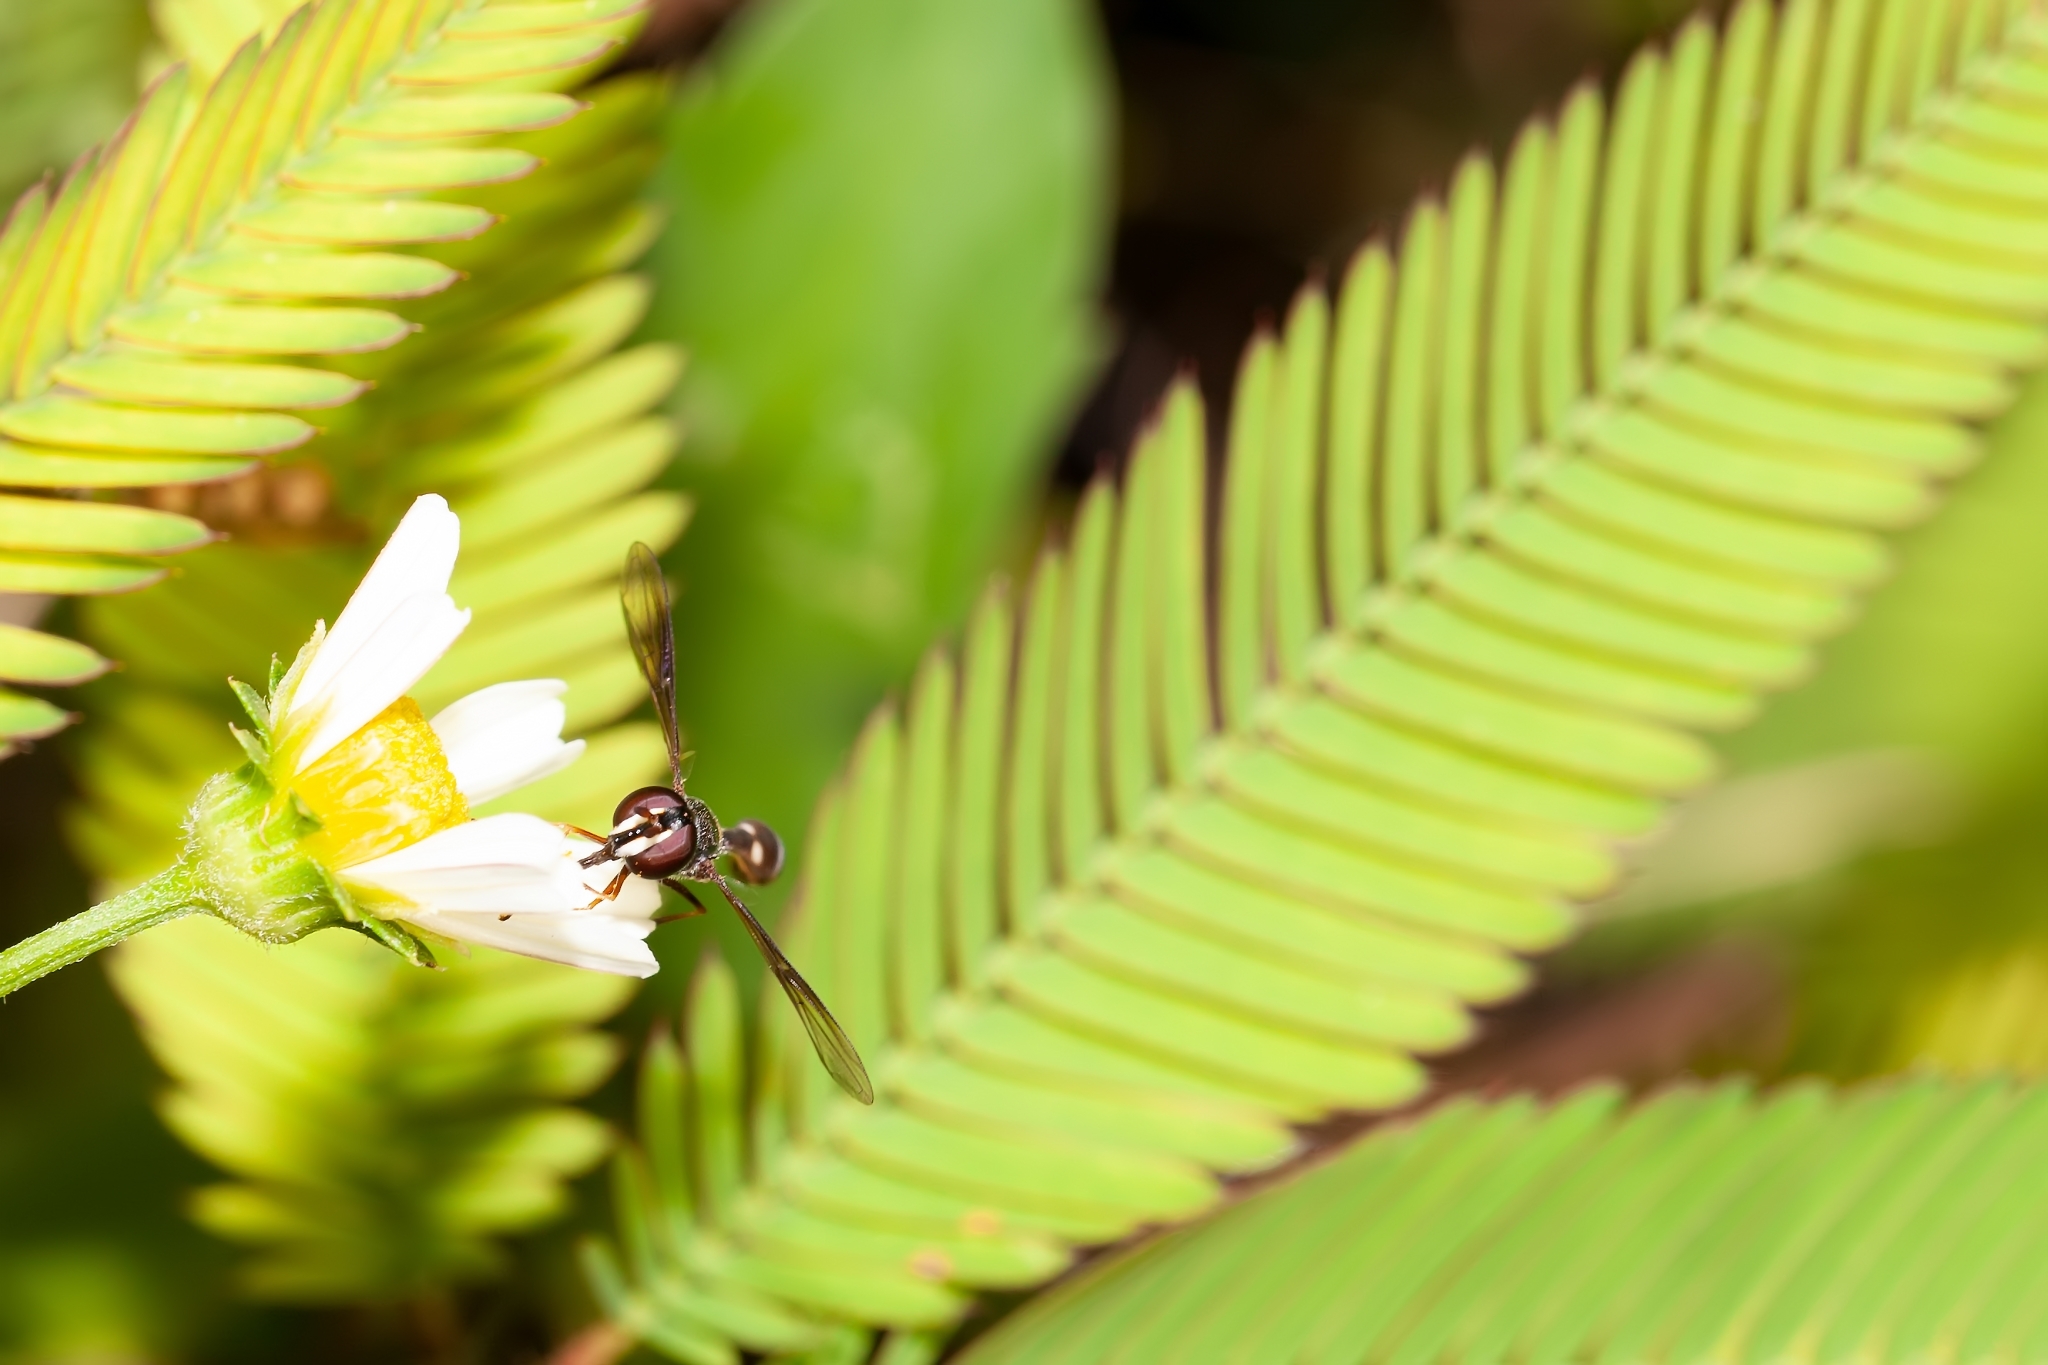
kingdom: Animalia
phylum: Arthropoda
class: Insecta
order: Diptera
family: Syrphidae
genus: Dioprosopa
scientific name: Dioprosopa clavatus
